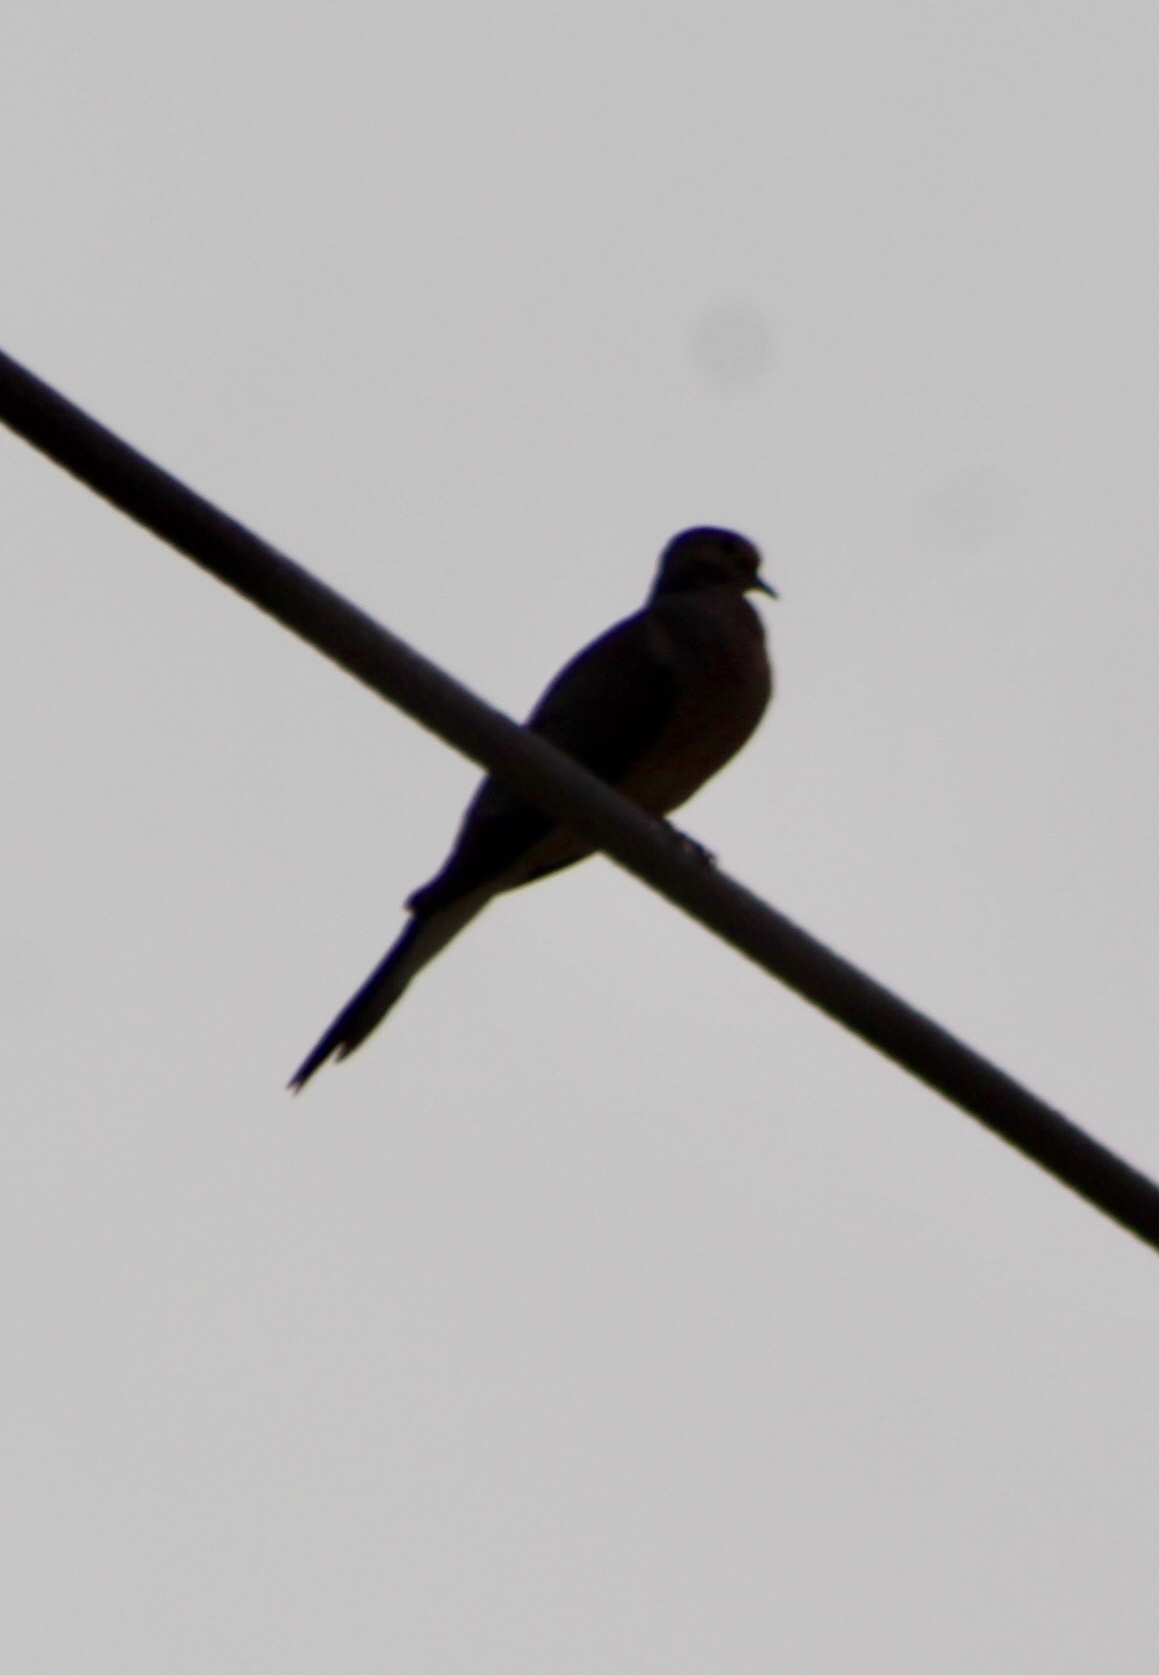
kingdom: Animalia
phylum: Chordata
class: Aves
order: Columbiformes
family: Columbidae
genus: Zenaida
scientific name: Zenaida macroura
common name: Mourning dove
